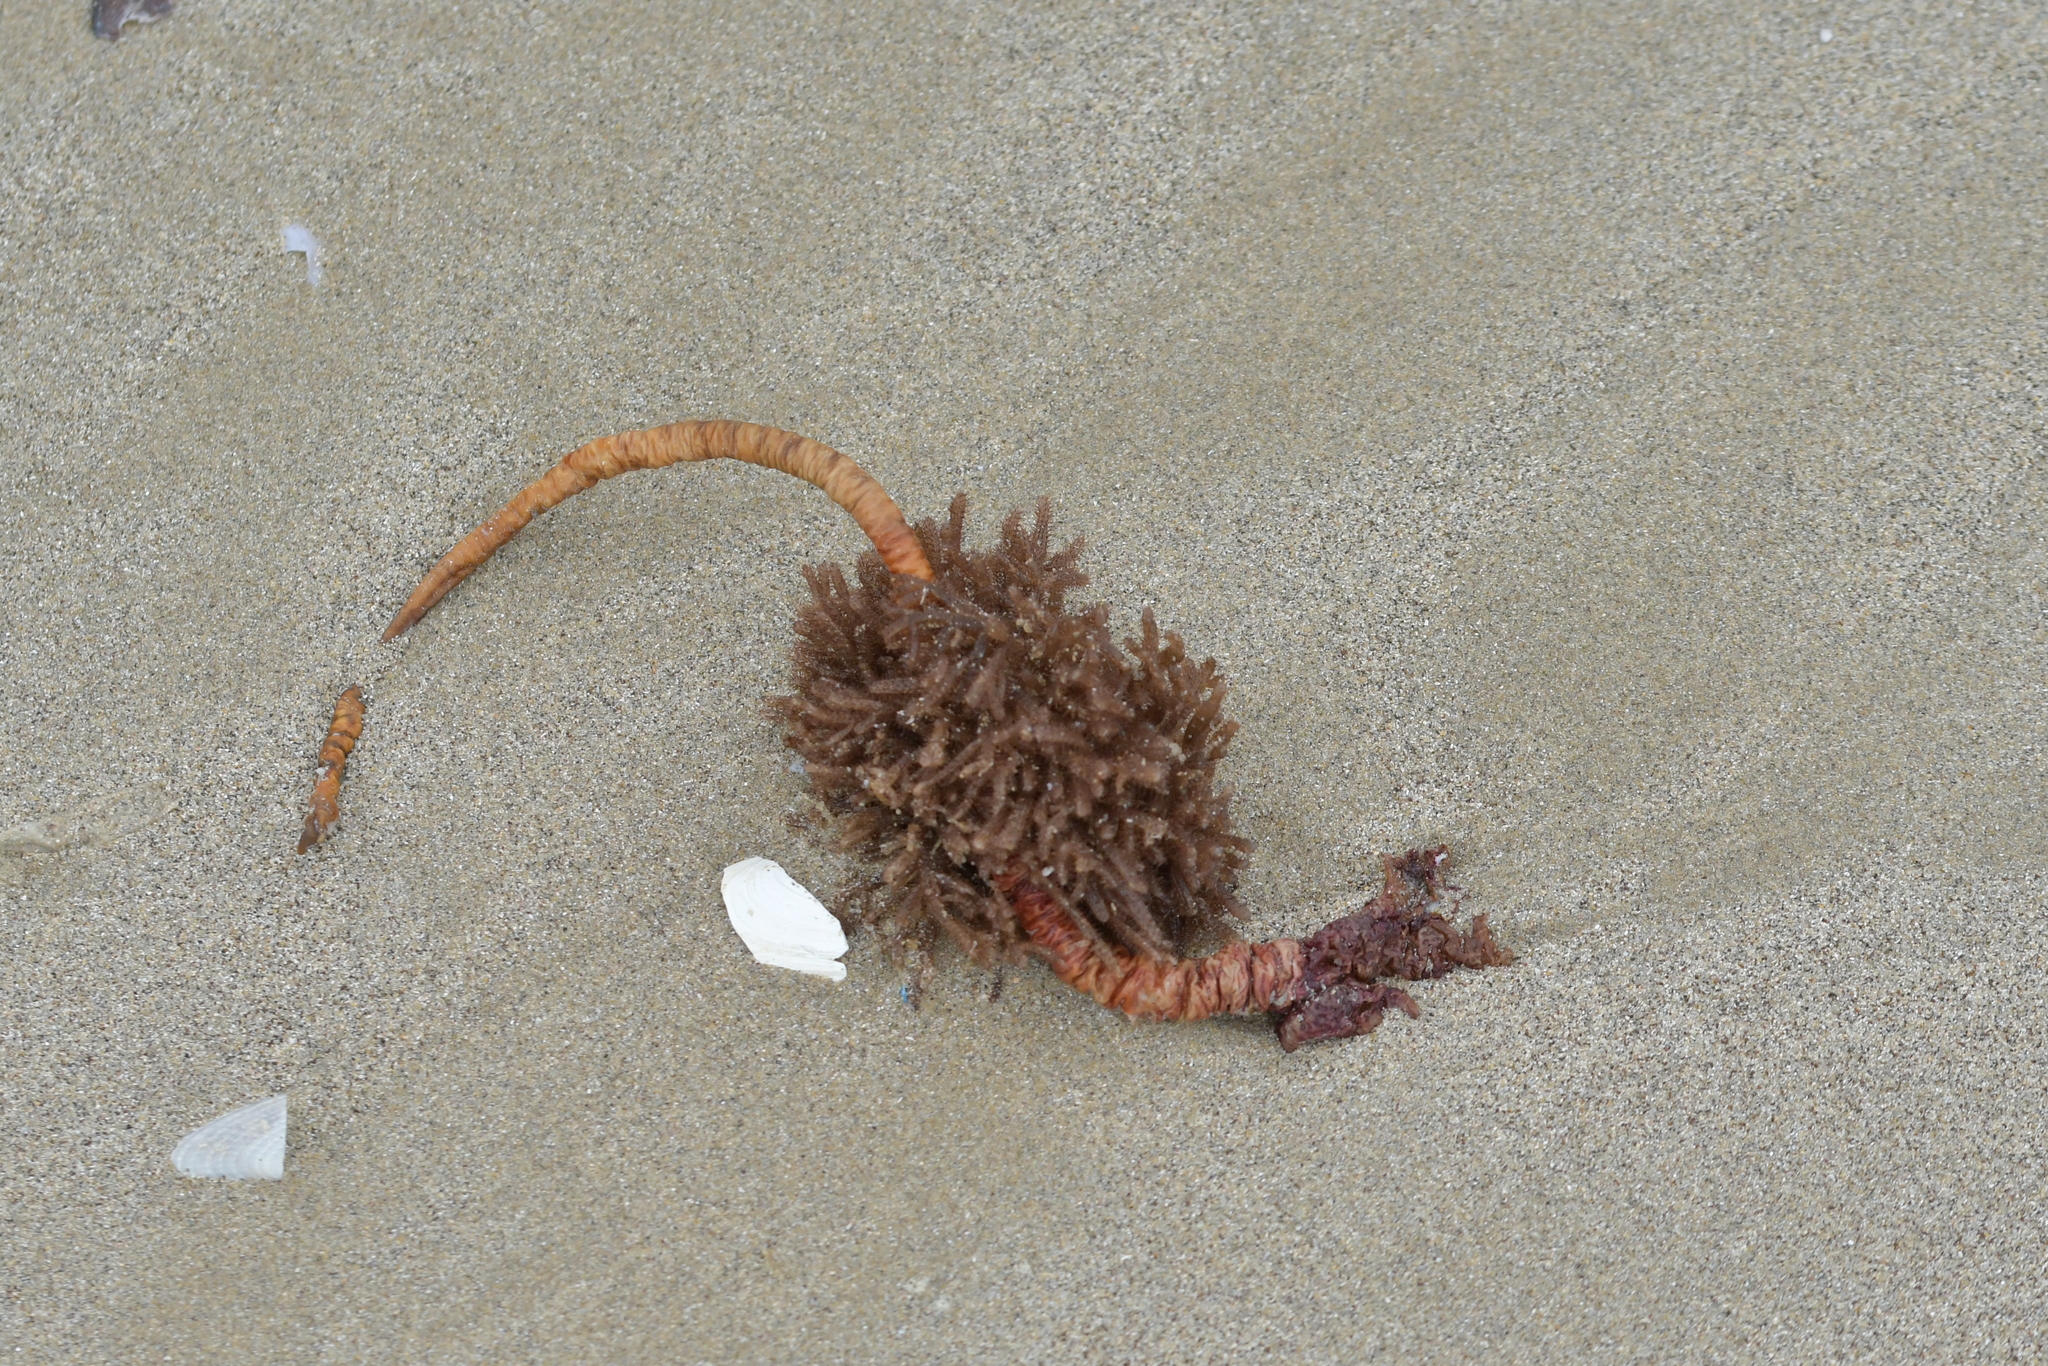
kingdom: Animalia
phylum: Chordata
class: Ascidiacea
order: Stolidobranchia
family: Pyuridae
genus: Pyura
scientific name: Pyura pachydermatina
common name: Sea tulip
